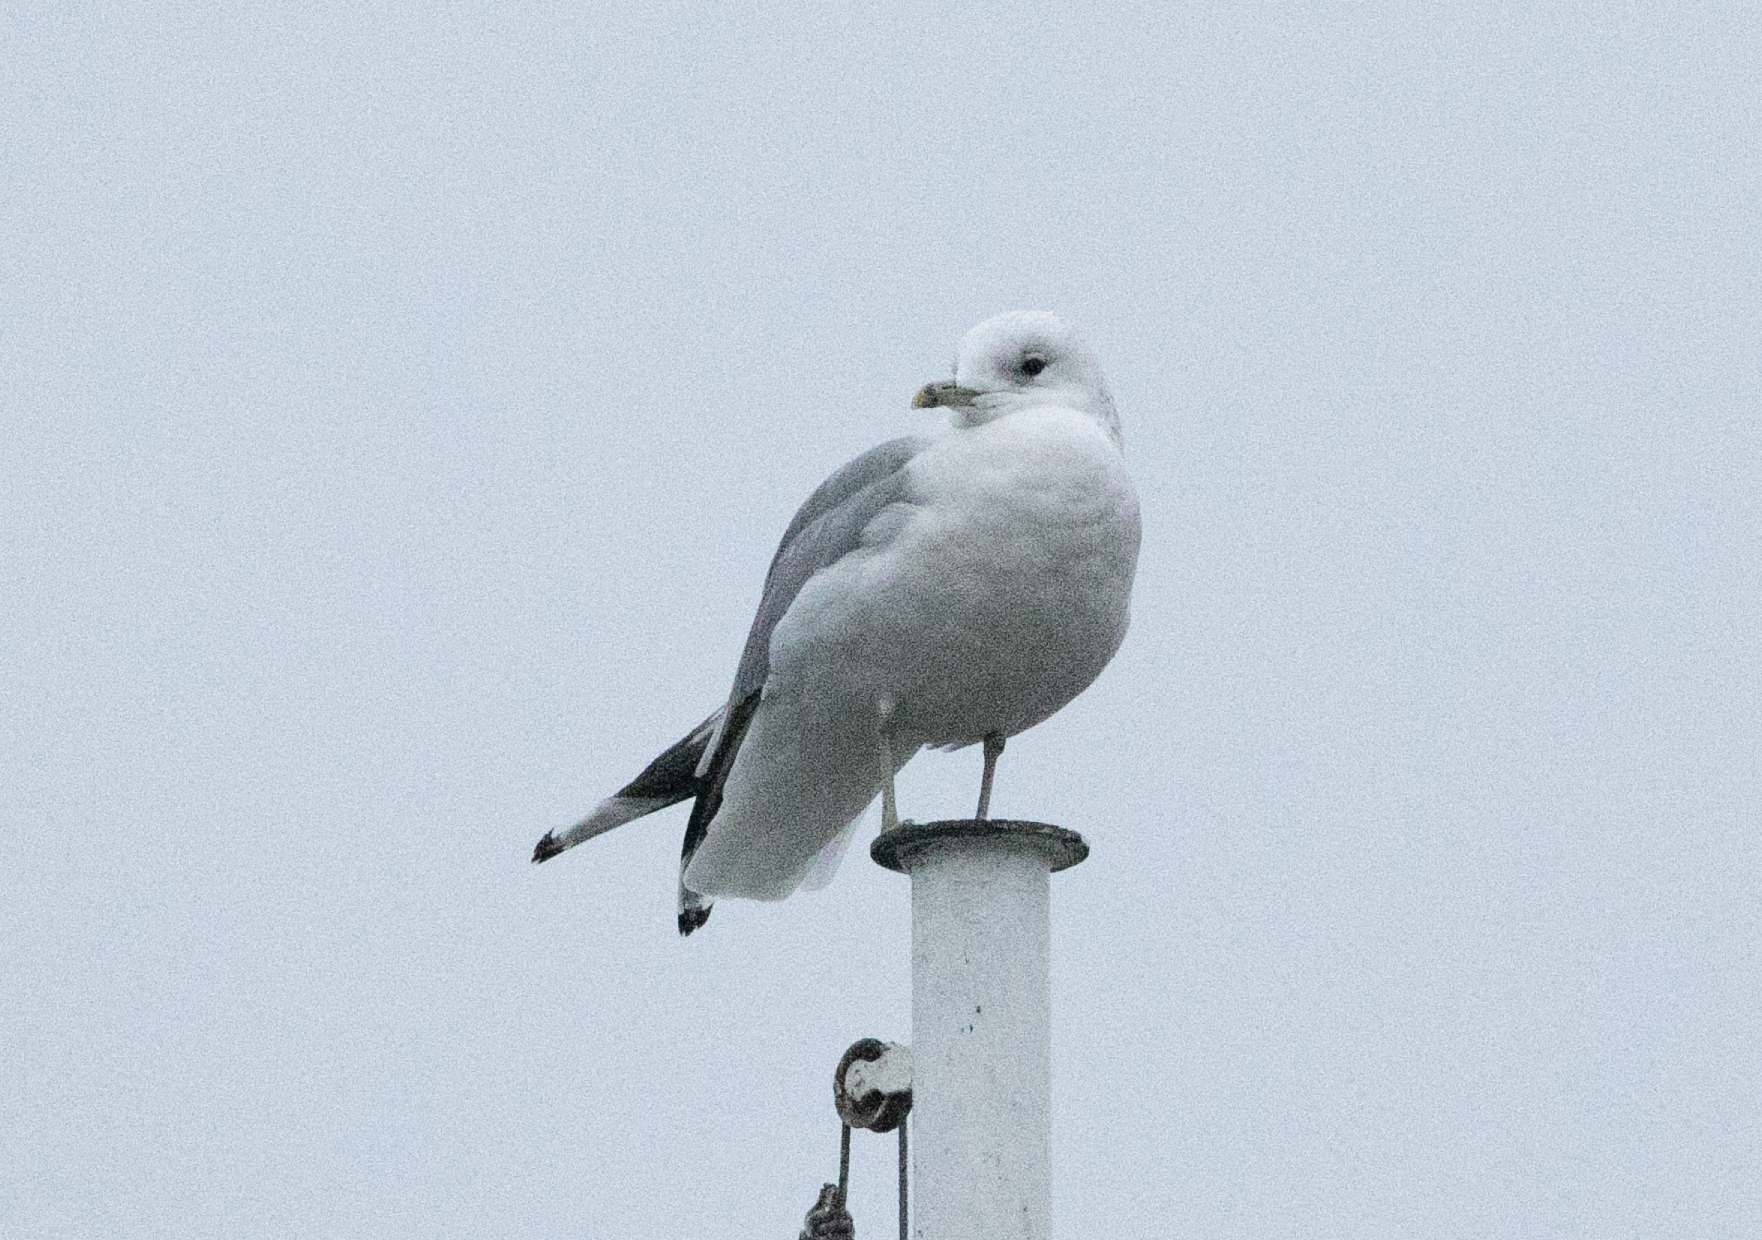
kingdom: Animalia
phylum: Chordata
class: Aves
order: Charadriiformes
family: Laridae
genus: Larus
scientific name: Larus canus
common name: Mew gull
